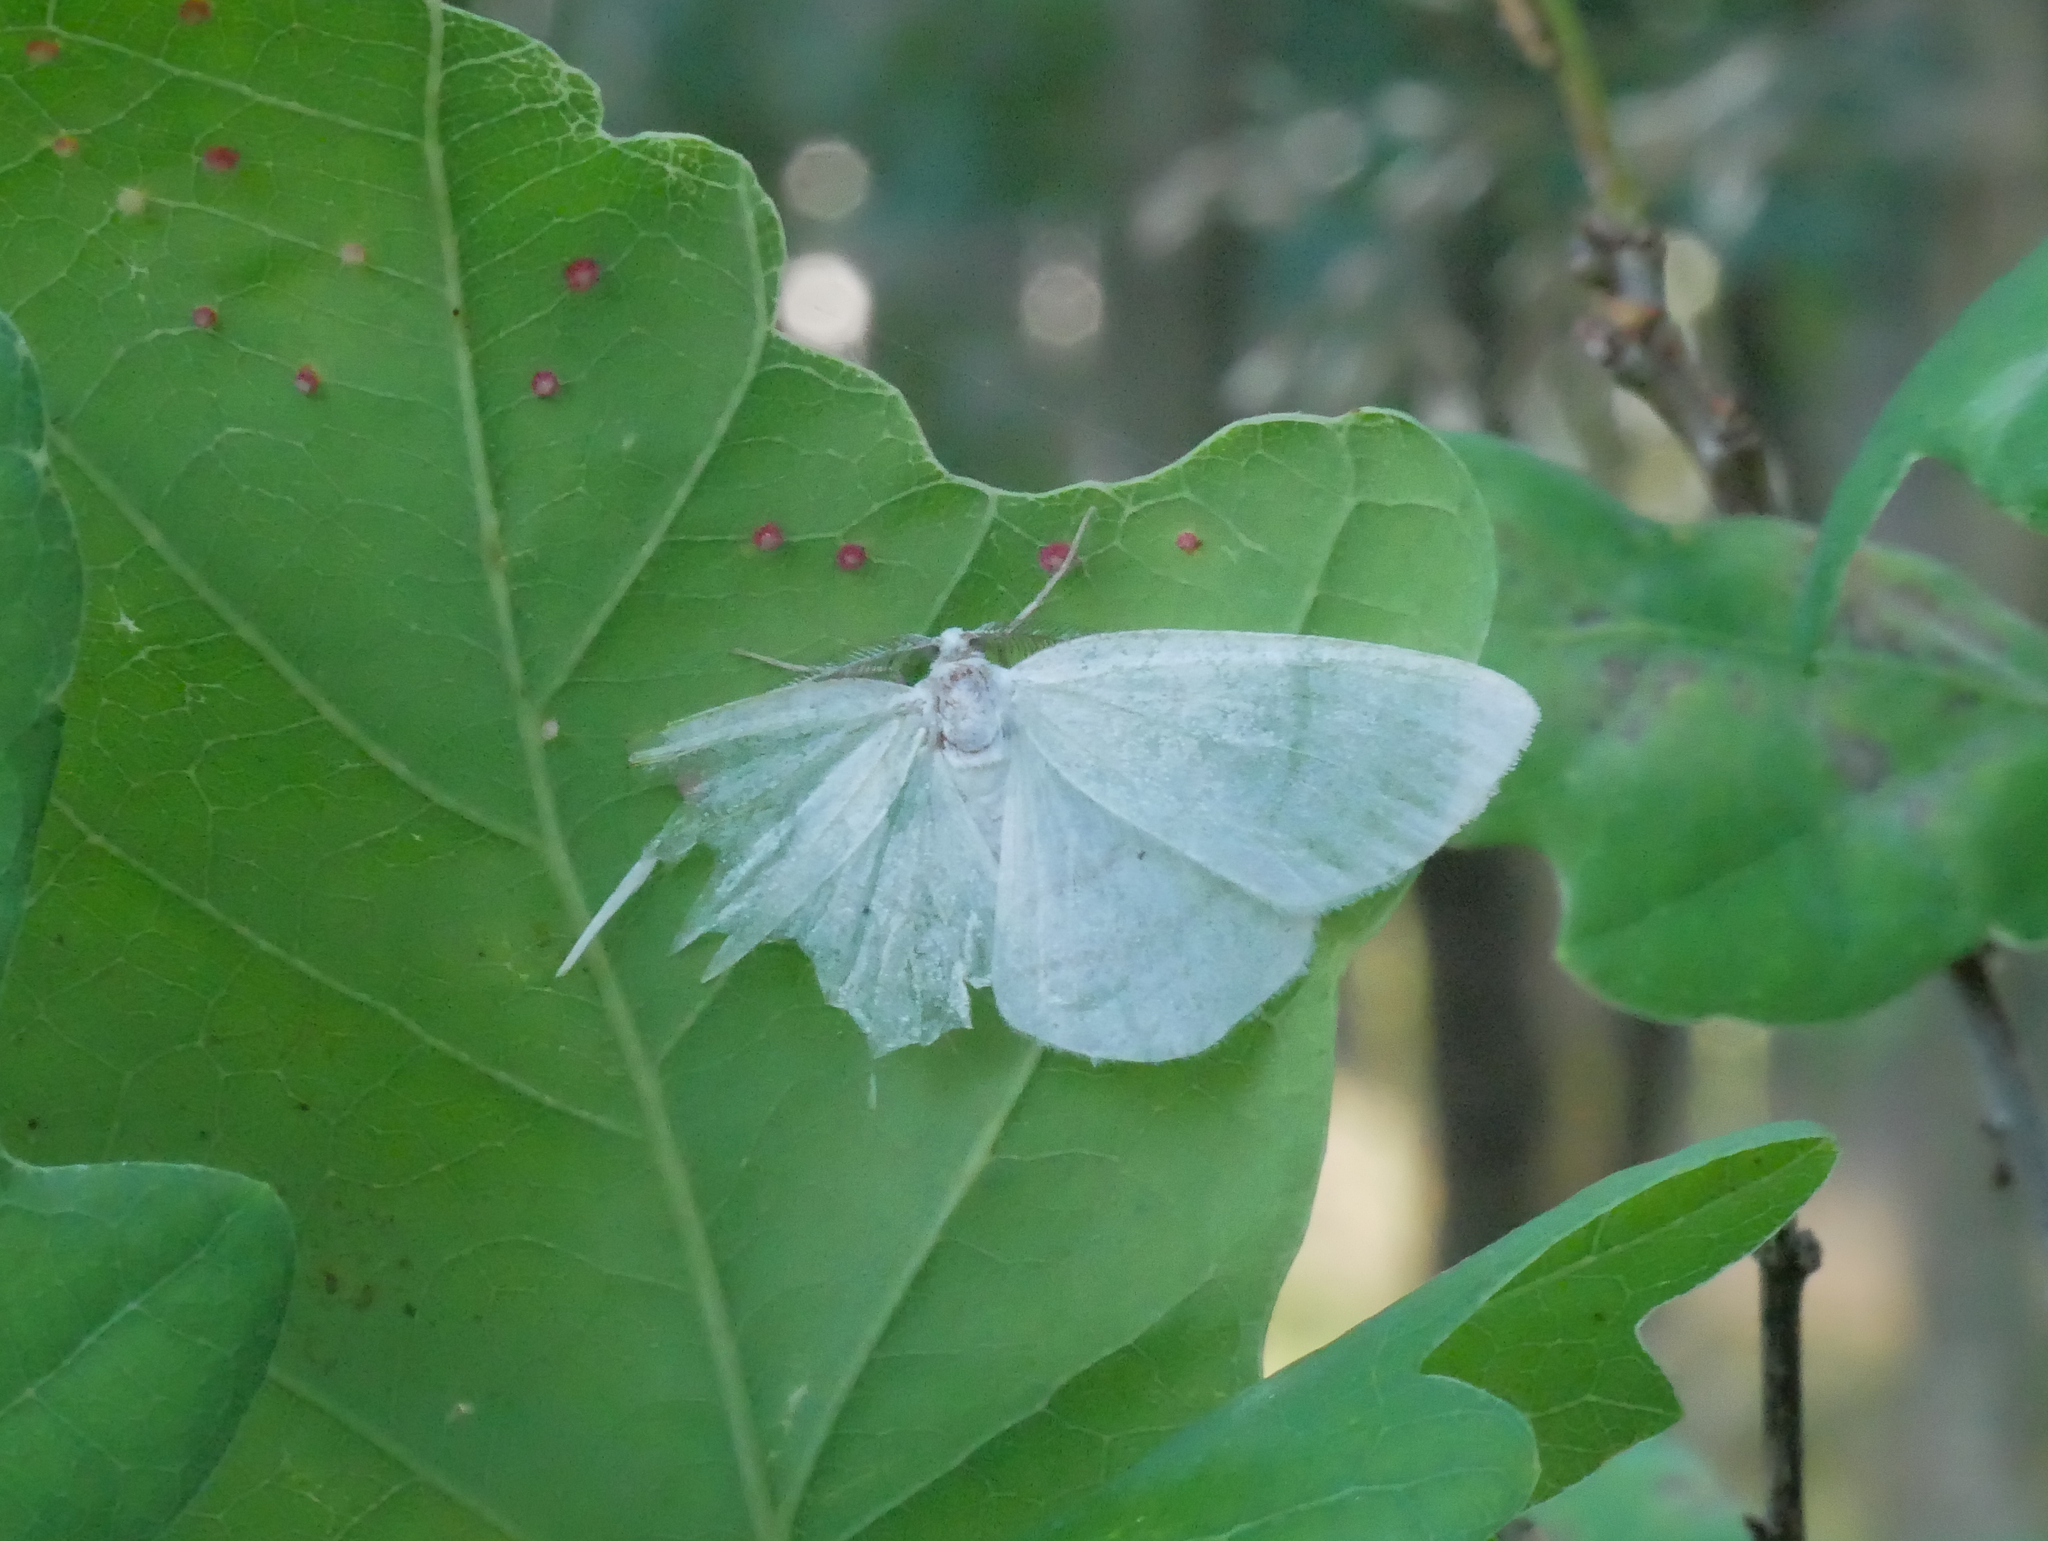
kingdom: Animalia
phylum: Arthropoda
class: Insecta
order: Lepidoptera
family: Geometridae
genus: Cabera
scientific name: Cabera pusaria
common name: Common white wave
